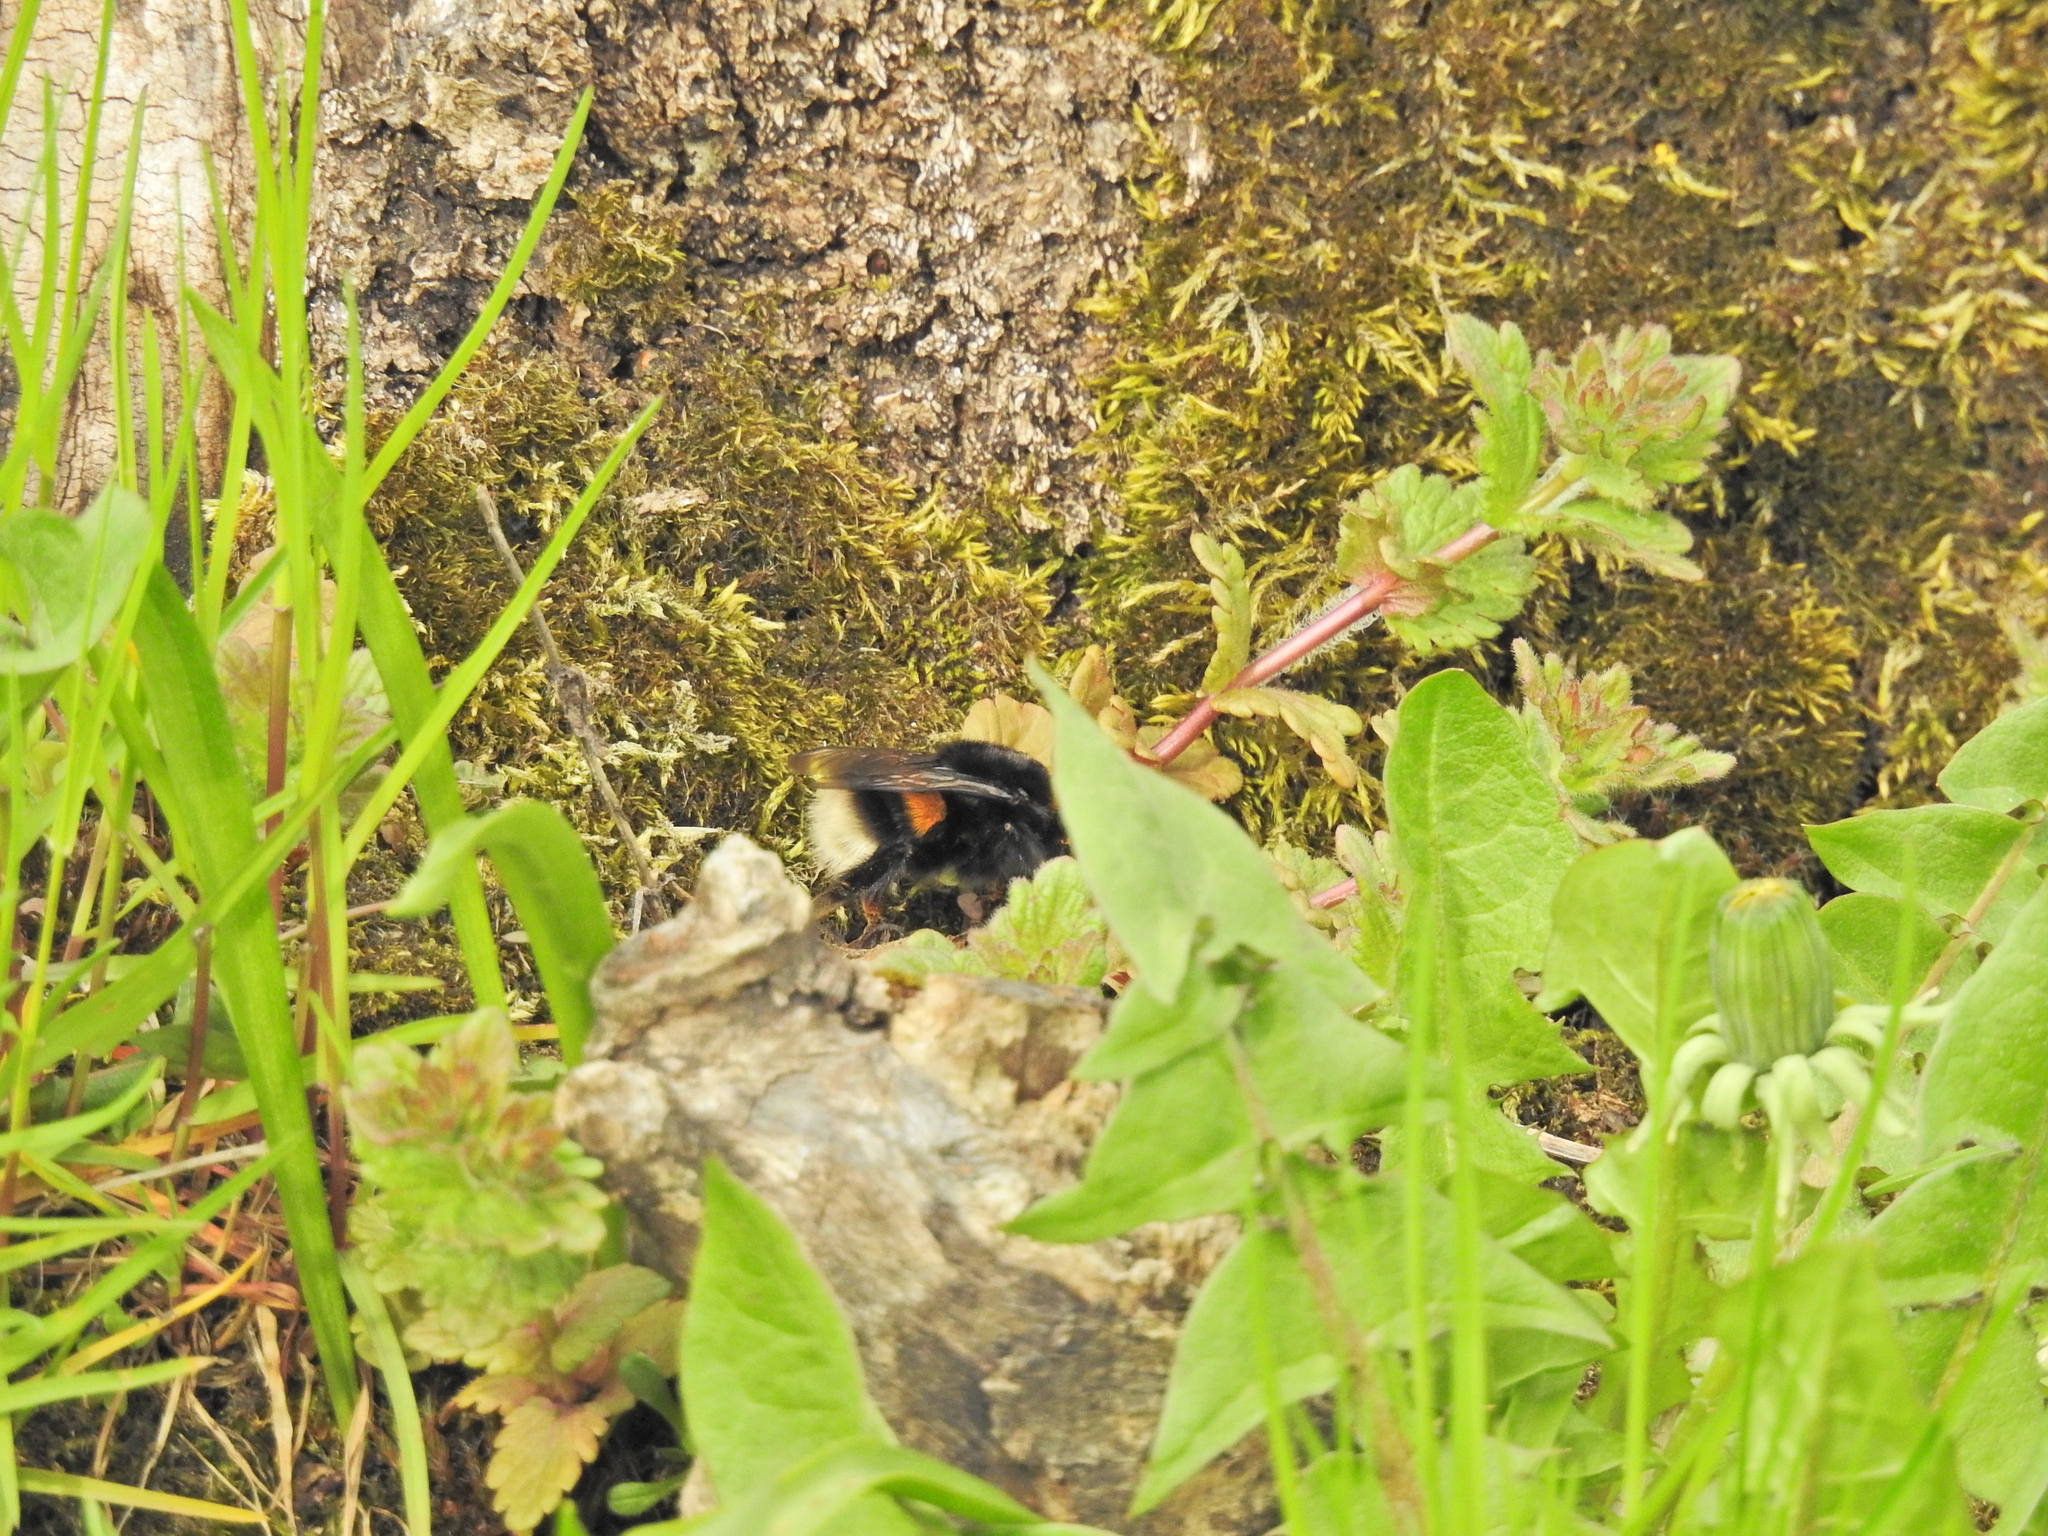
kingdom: Animalia
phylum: Arthropoda
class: Insecta
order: Hymenoptera
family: Apidae
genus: Bombus
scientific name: Bombus terrestris
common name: Buff-tailed bumblebee
